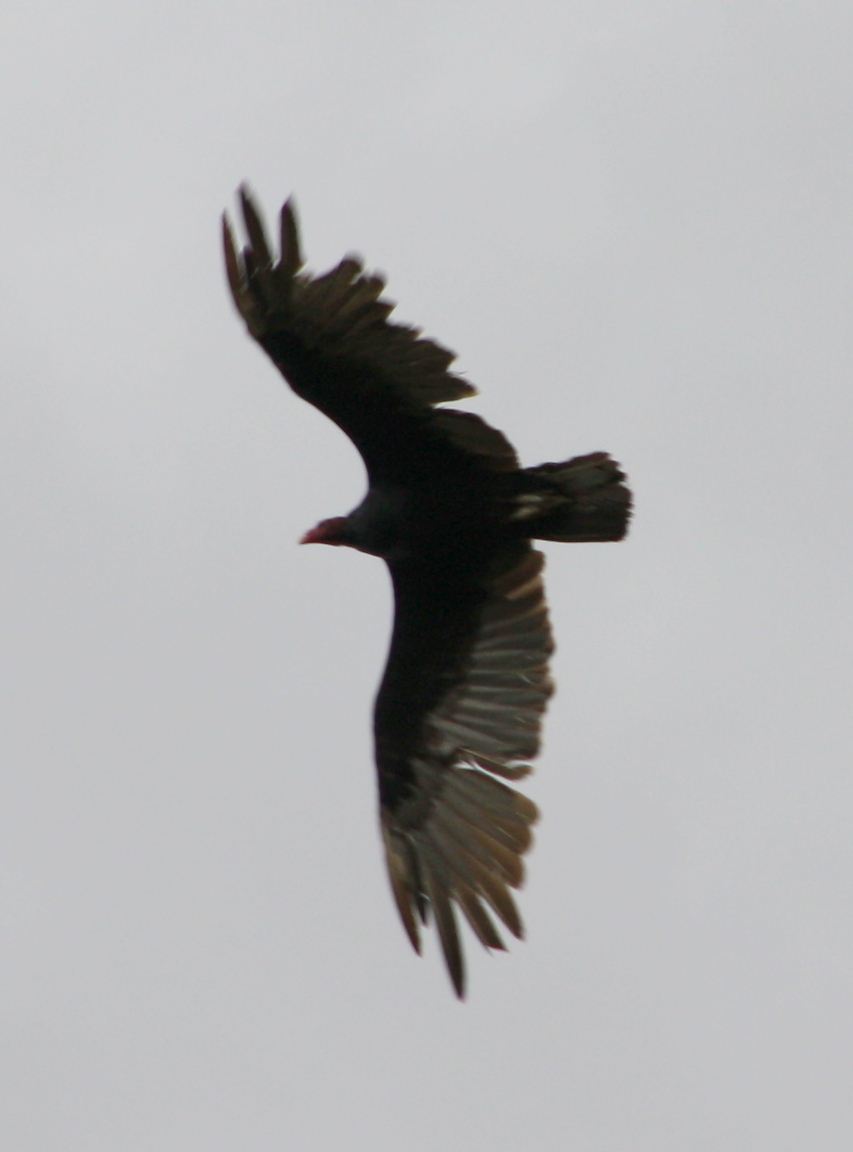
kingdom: Animalia
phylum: Chordata
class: Aves
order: Accipitriformes
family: Cathartidae
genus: Cathartes
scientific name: Cathartes aura
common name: Turkey vulture
